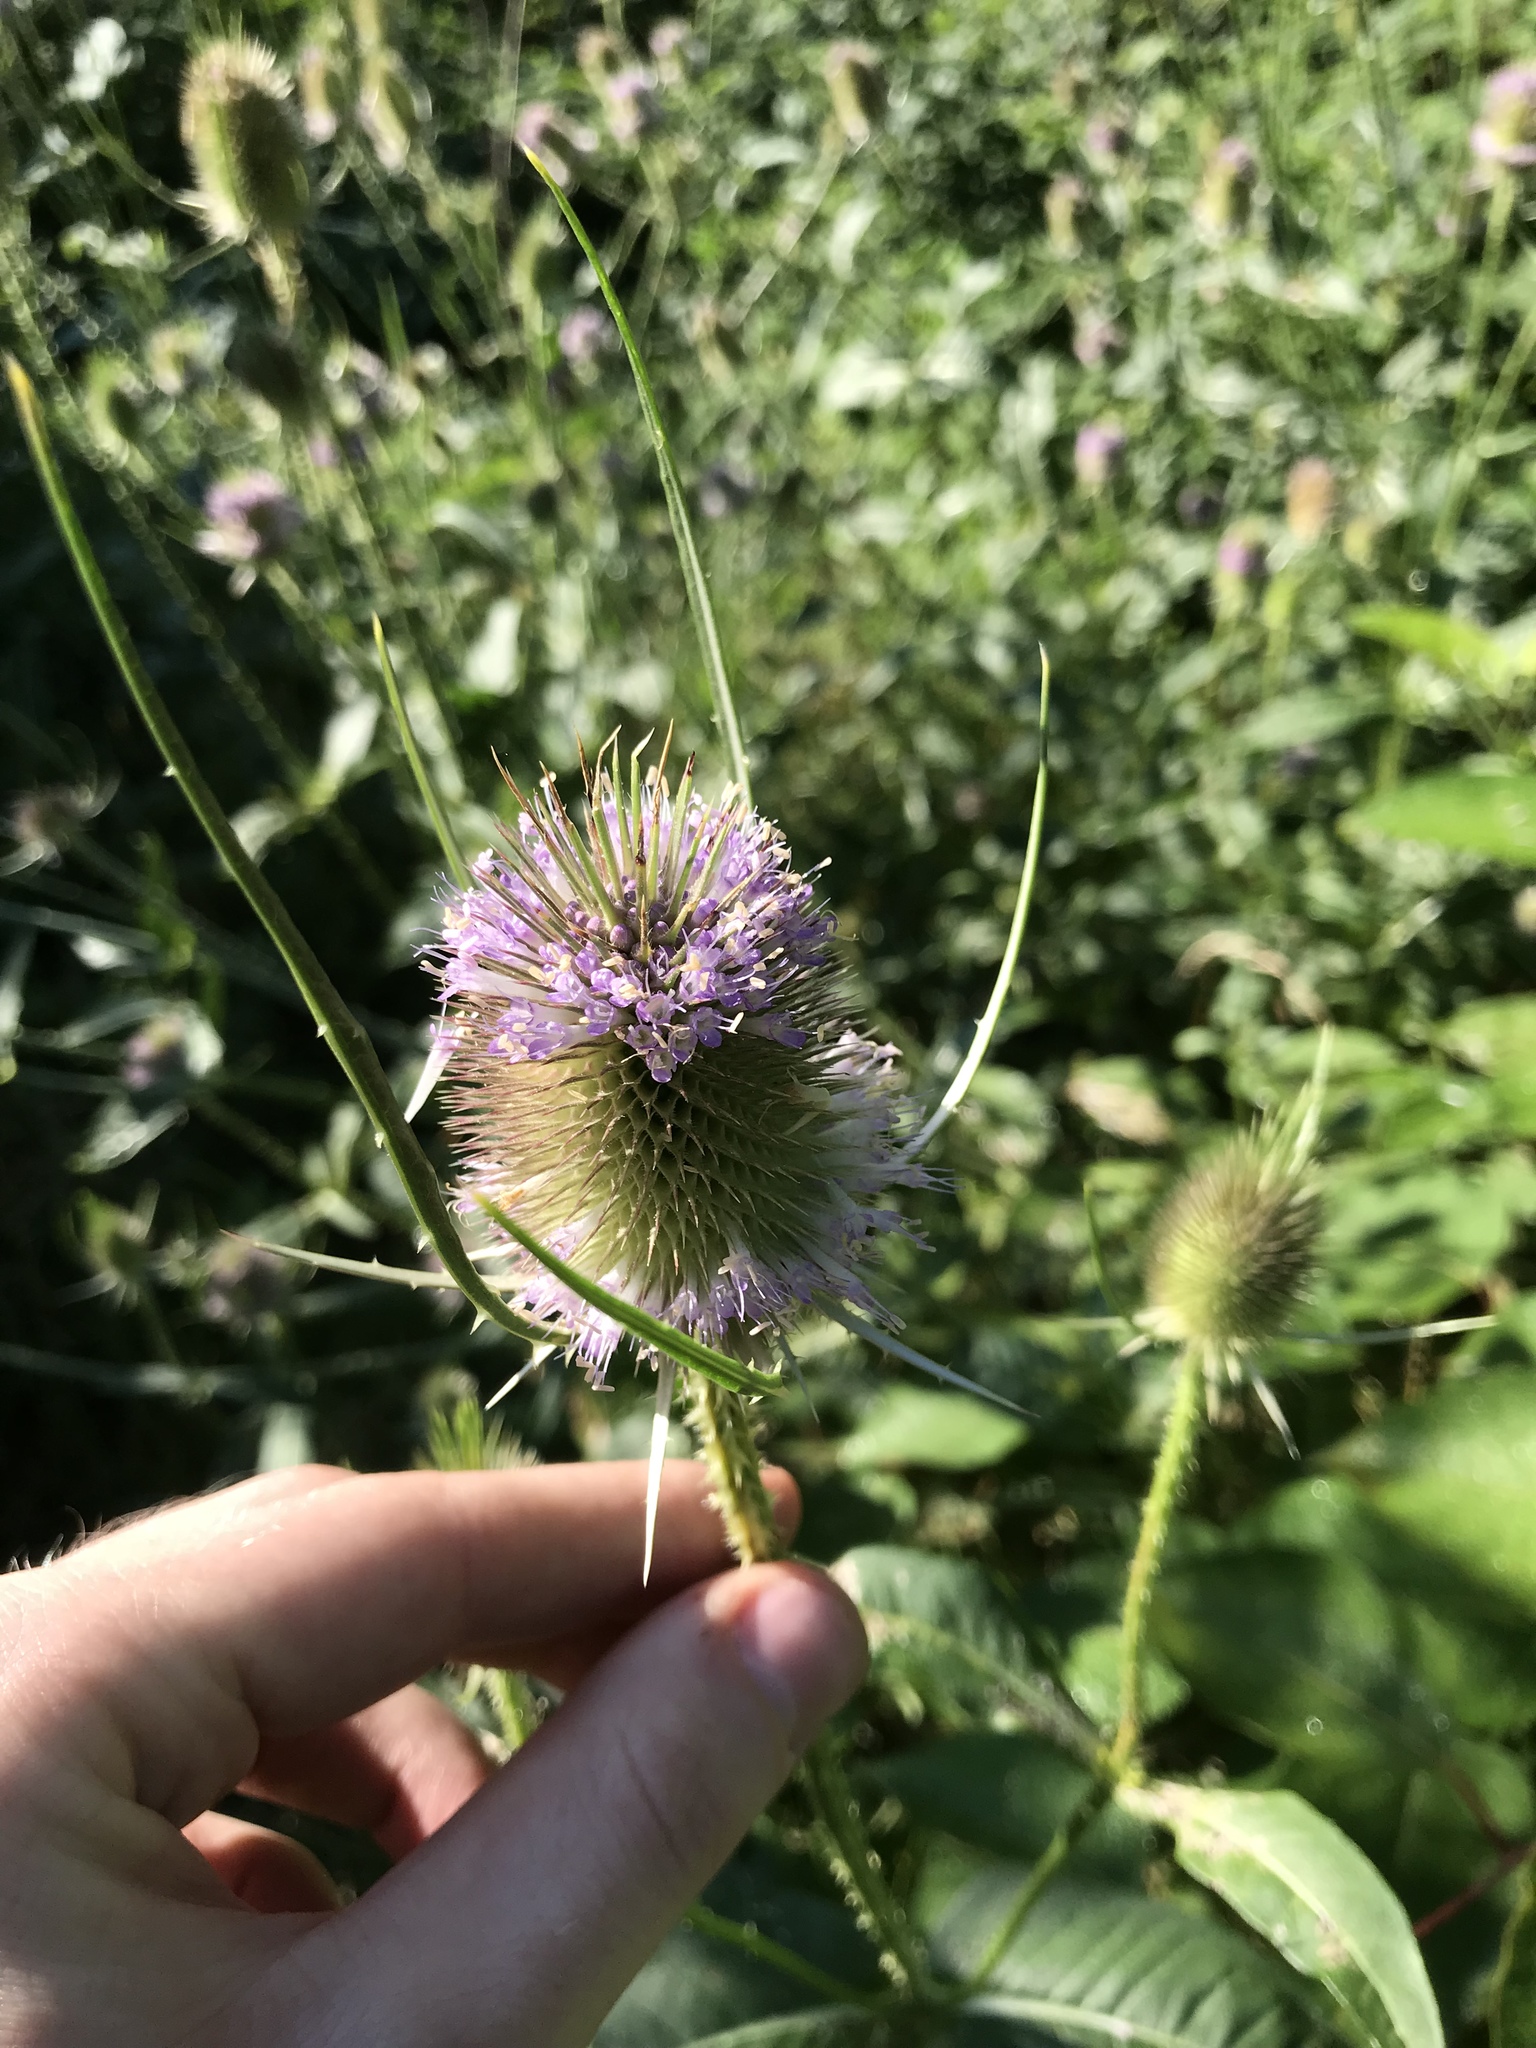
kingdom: Plantae
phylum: Tracheophyta
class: Magnoliopsida
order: Dipsacales
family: Caprifoliaceae
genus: Dipsacus
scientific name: Dipsacus fullonum
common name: Teasel
